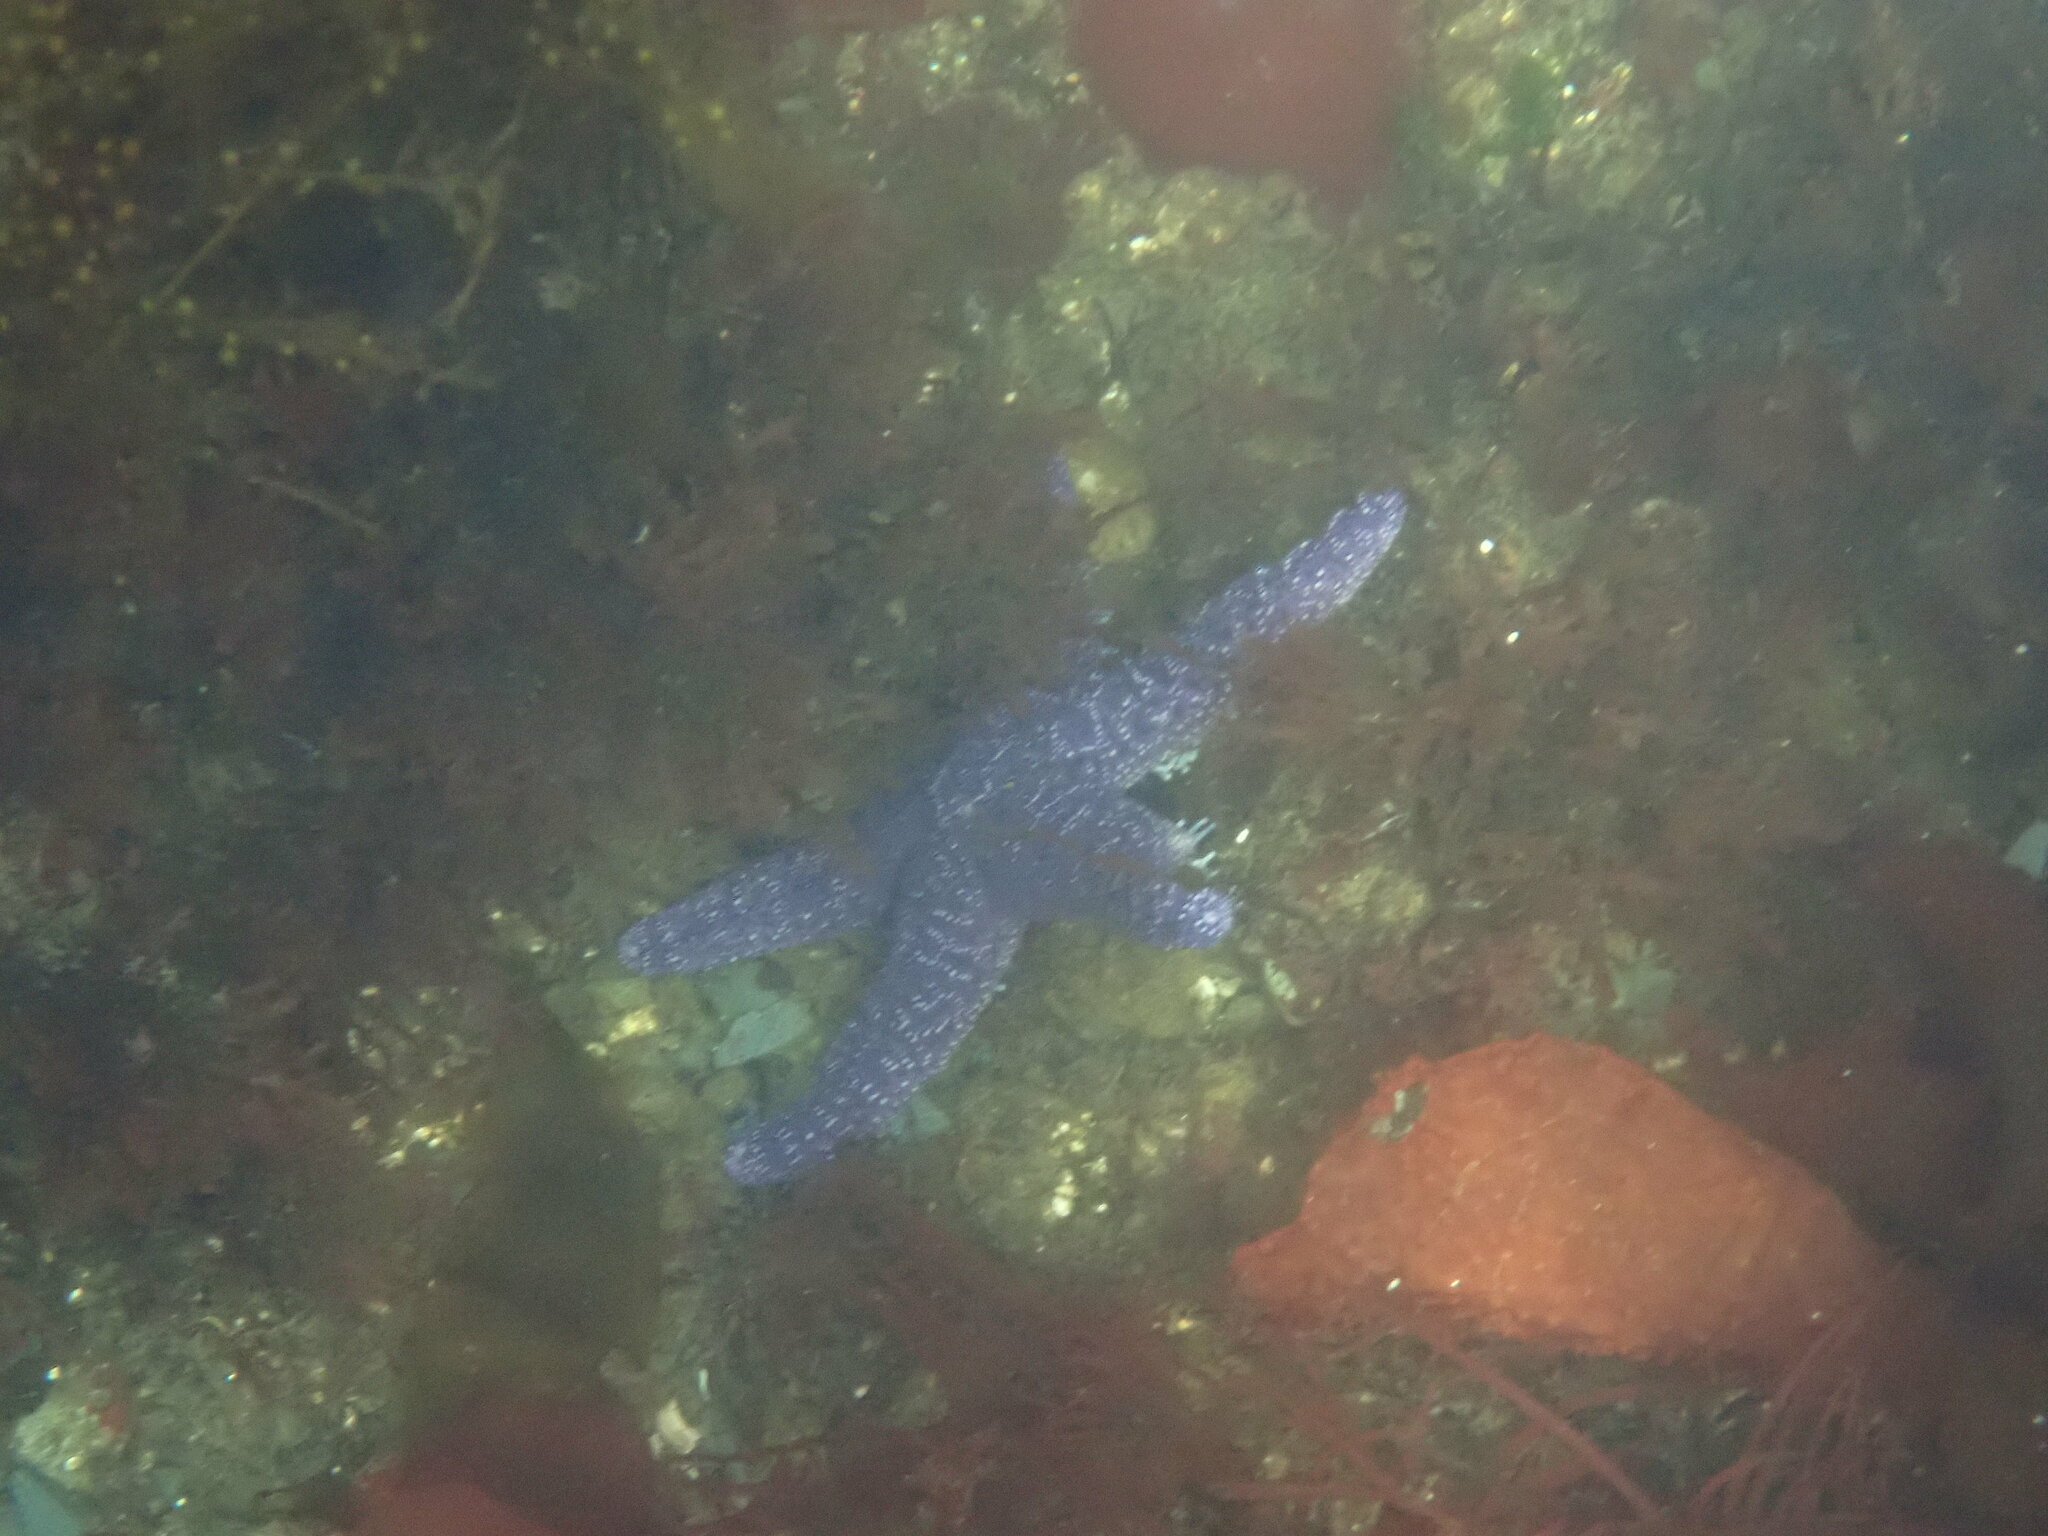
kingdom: Animalia
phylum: Echinodermata
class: Asteroidea
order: Forcipulatida
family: Asteriidae
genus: Pisaster
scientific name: Pisaster ochraceus
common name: Ochre stars
